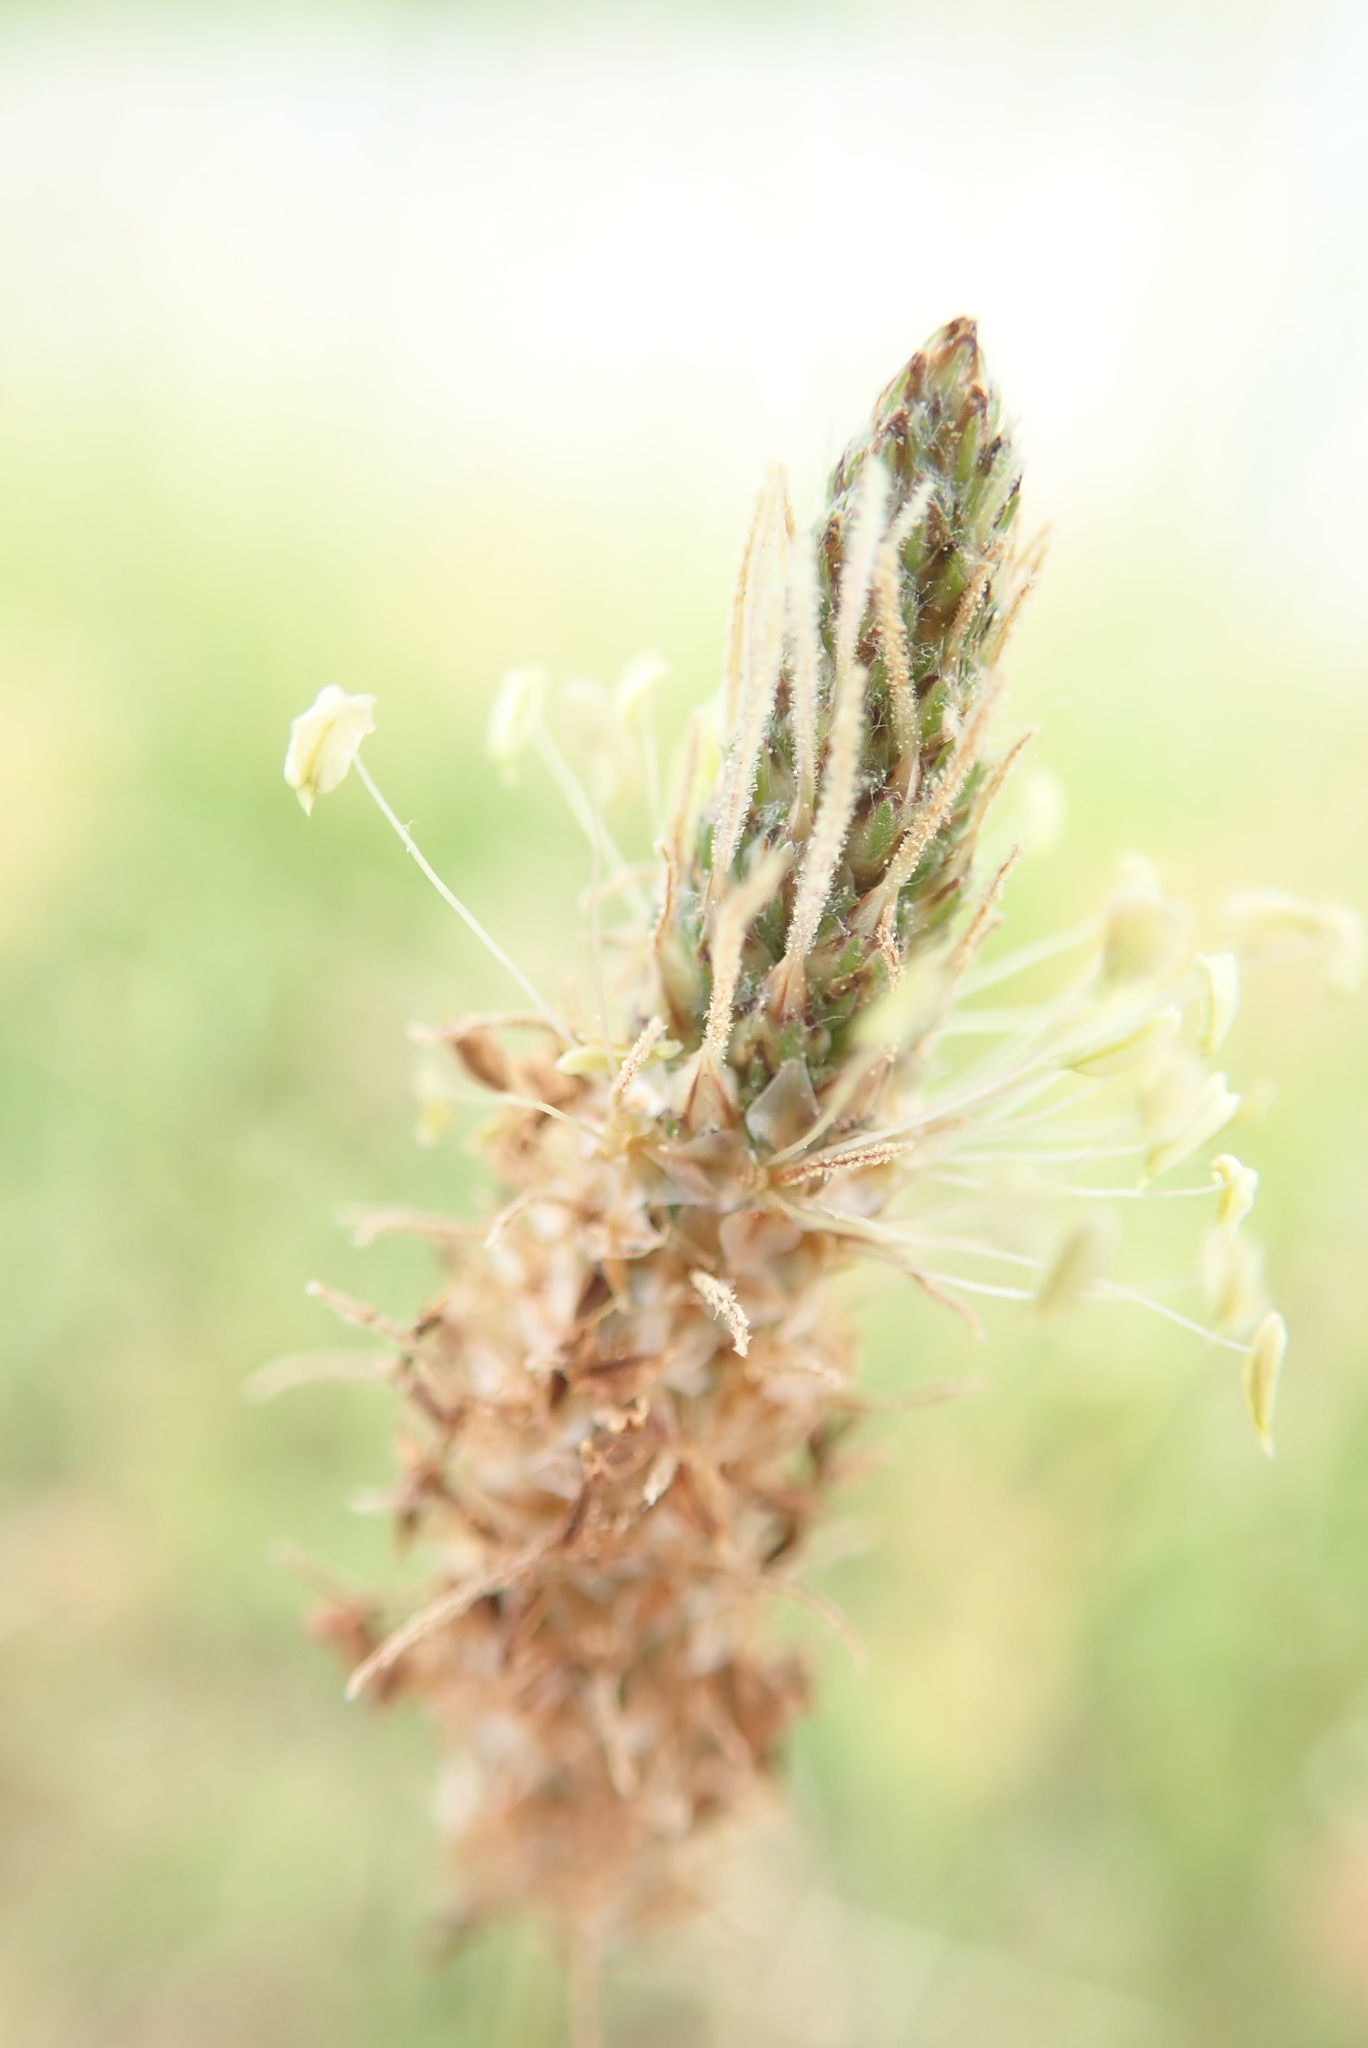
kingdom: Plantae
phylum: Tracheophyta
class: Magnoliopsida
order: Lamiales
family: Plantaginaceae
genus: Plantago
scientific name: Plantago lanceolata
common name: Ribwort plantain
